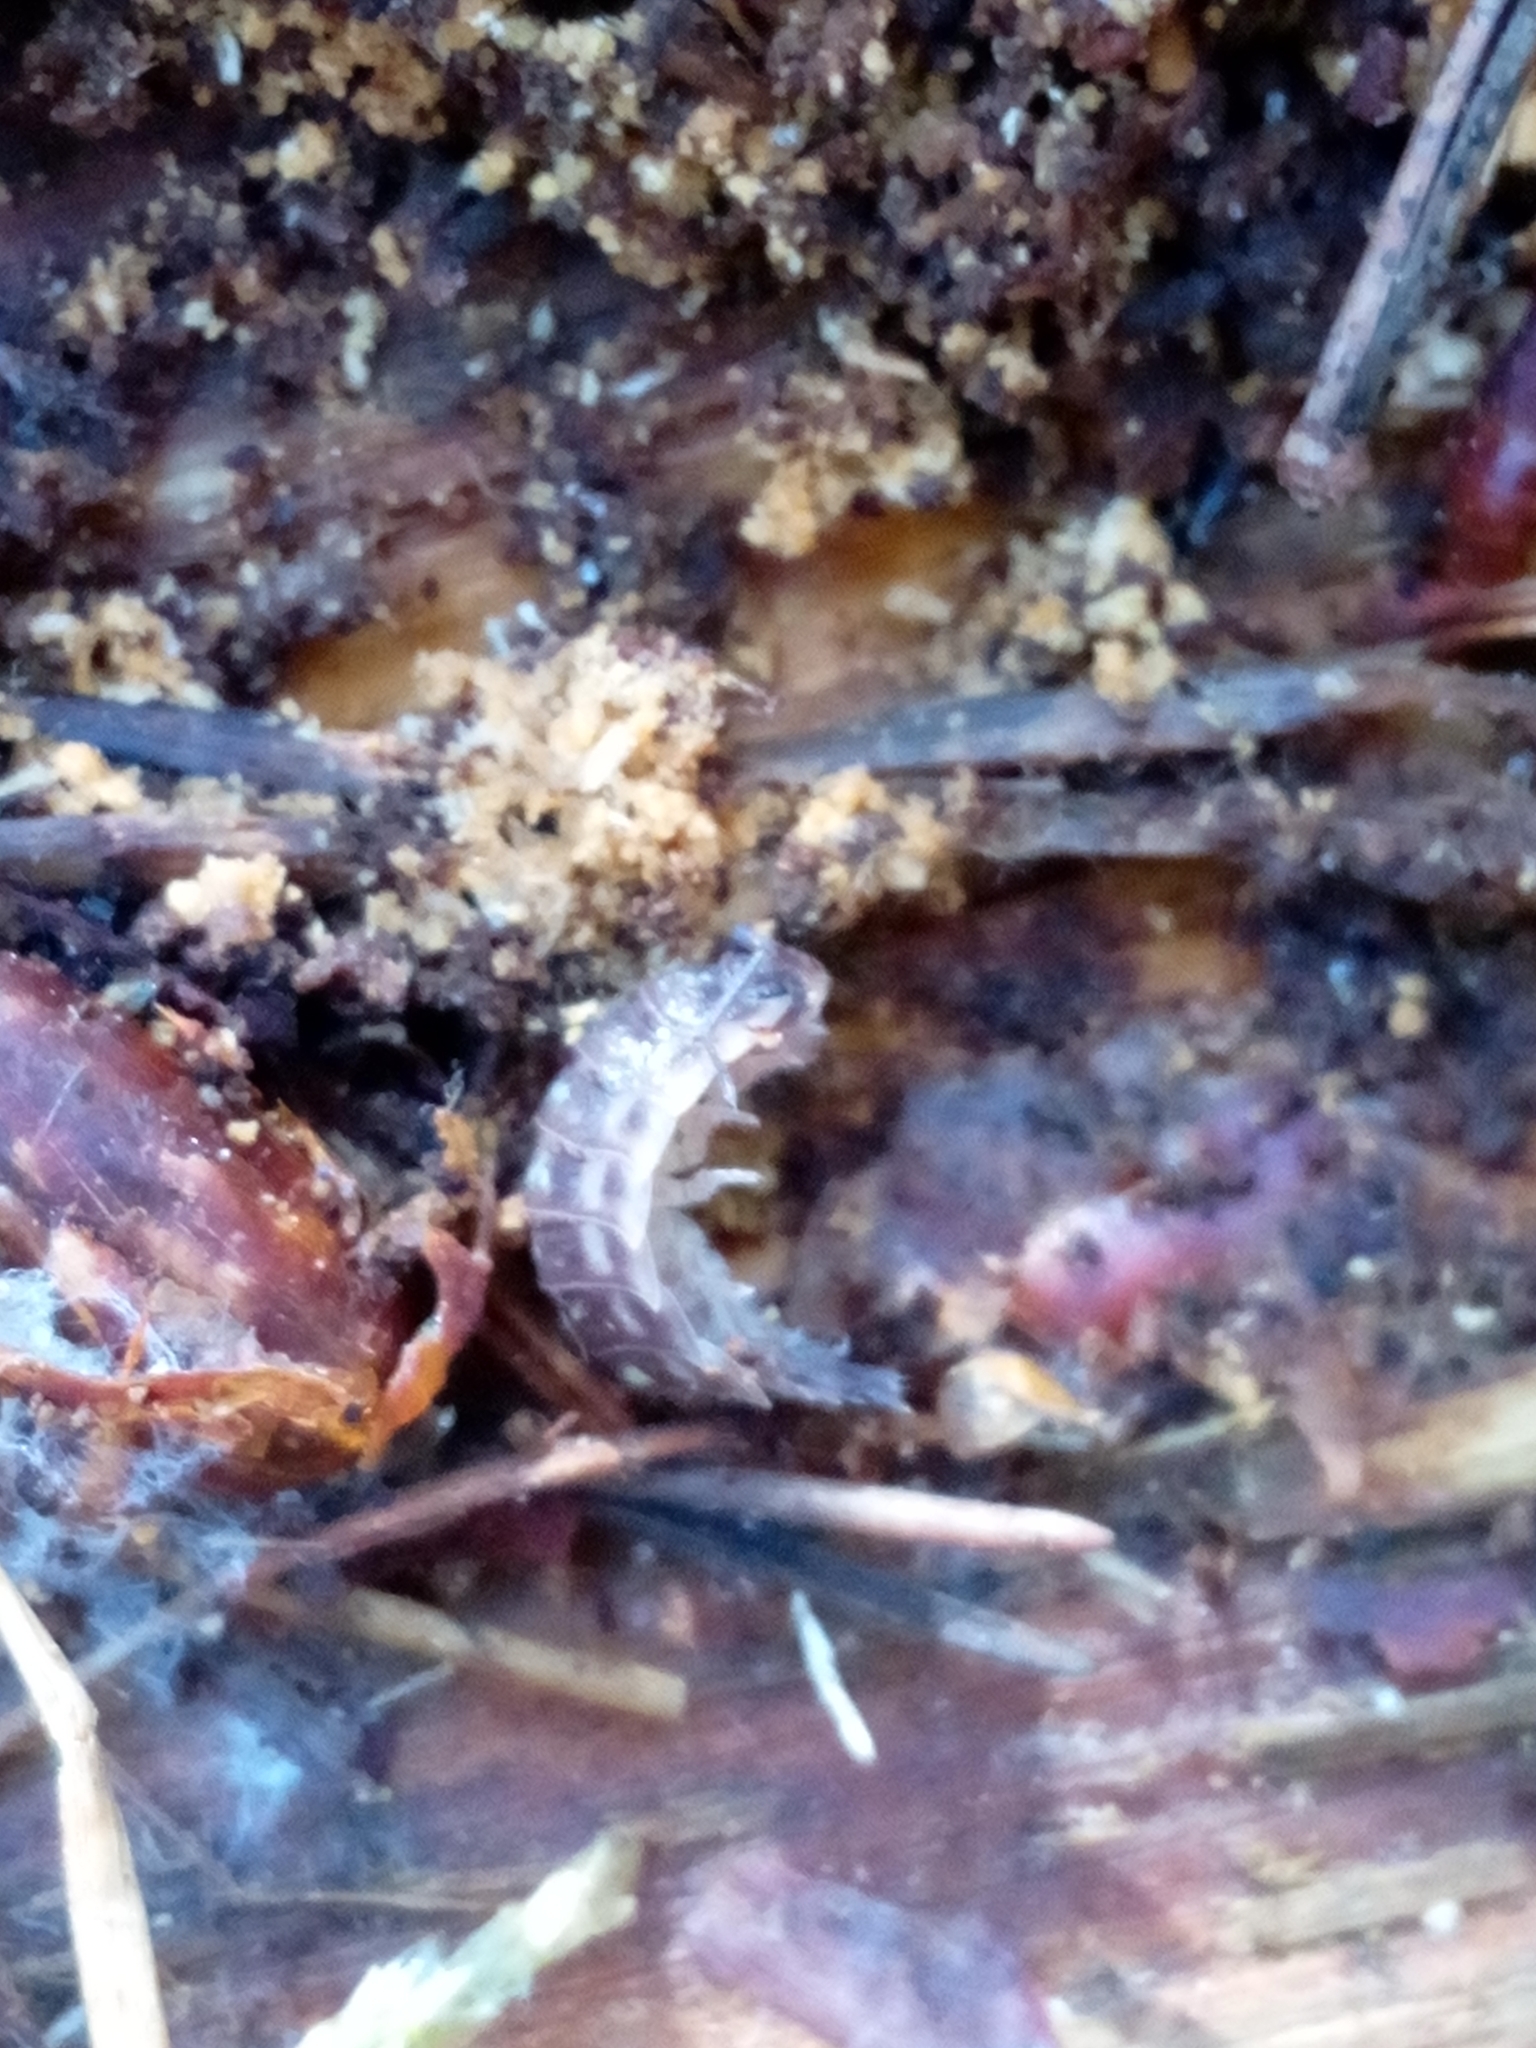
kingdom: Animalia
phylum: Arthropoda
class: Malacostraca
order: Isopoda
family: Oniscidae
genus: Oniscus
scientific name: Oniscus asellus
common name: Common shiny woodlouse
